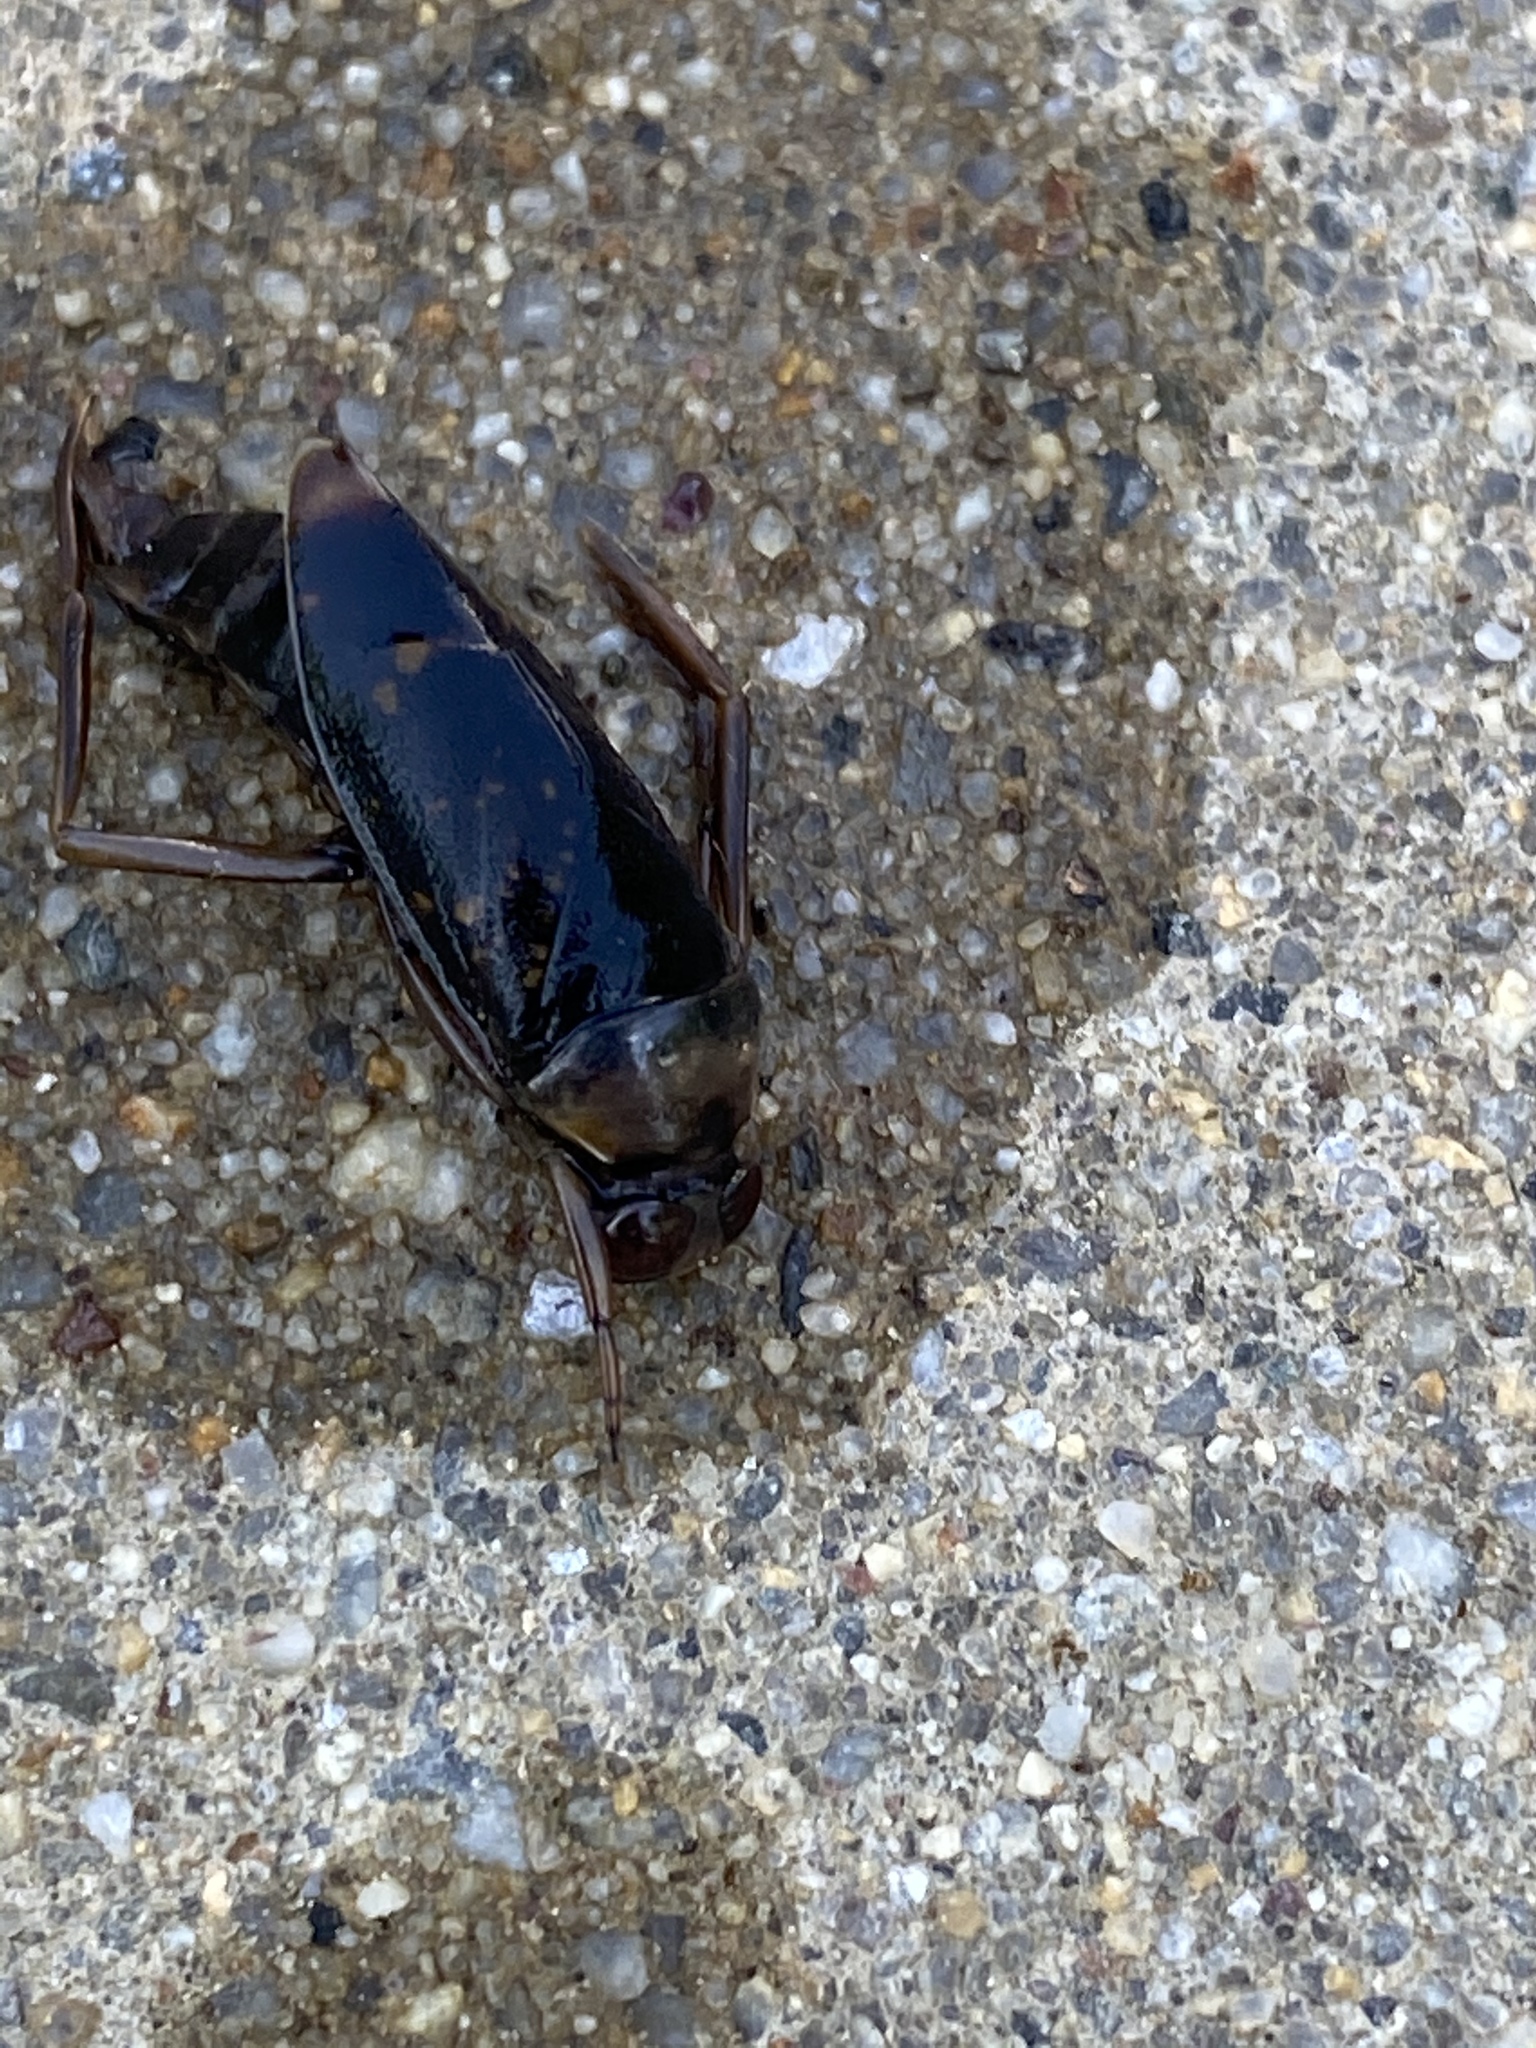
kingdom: Animalia
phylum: Arthropoda
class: Insecta
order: Hemiptera
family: Notonectidae
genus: Notonecta
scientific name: Notonecta irrorata
